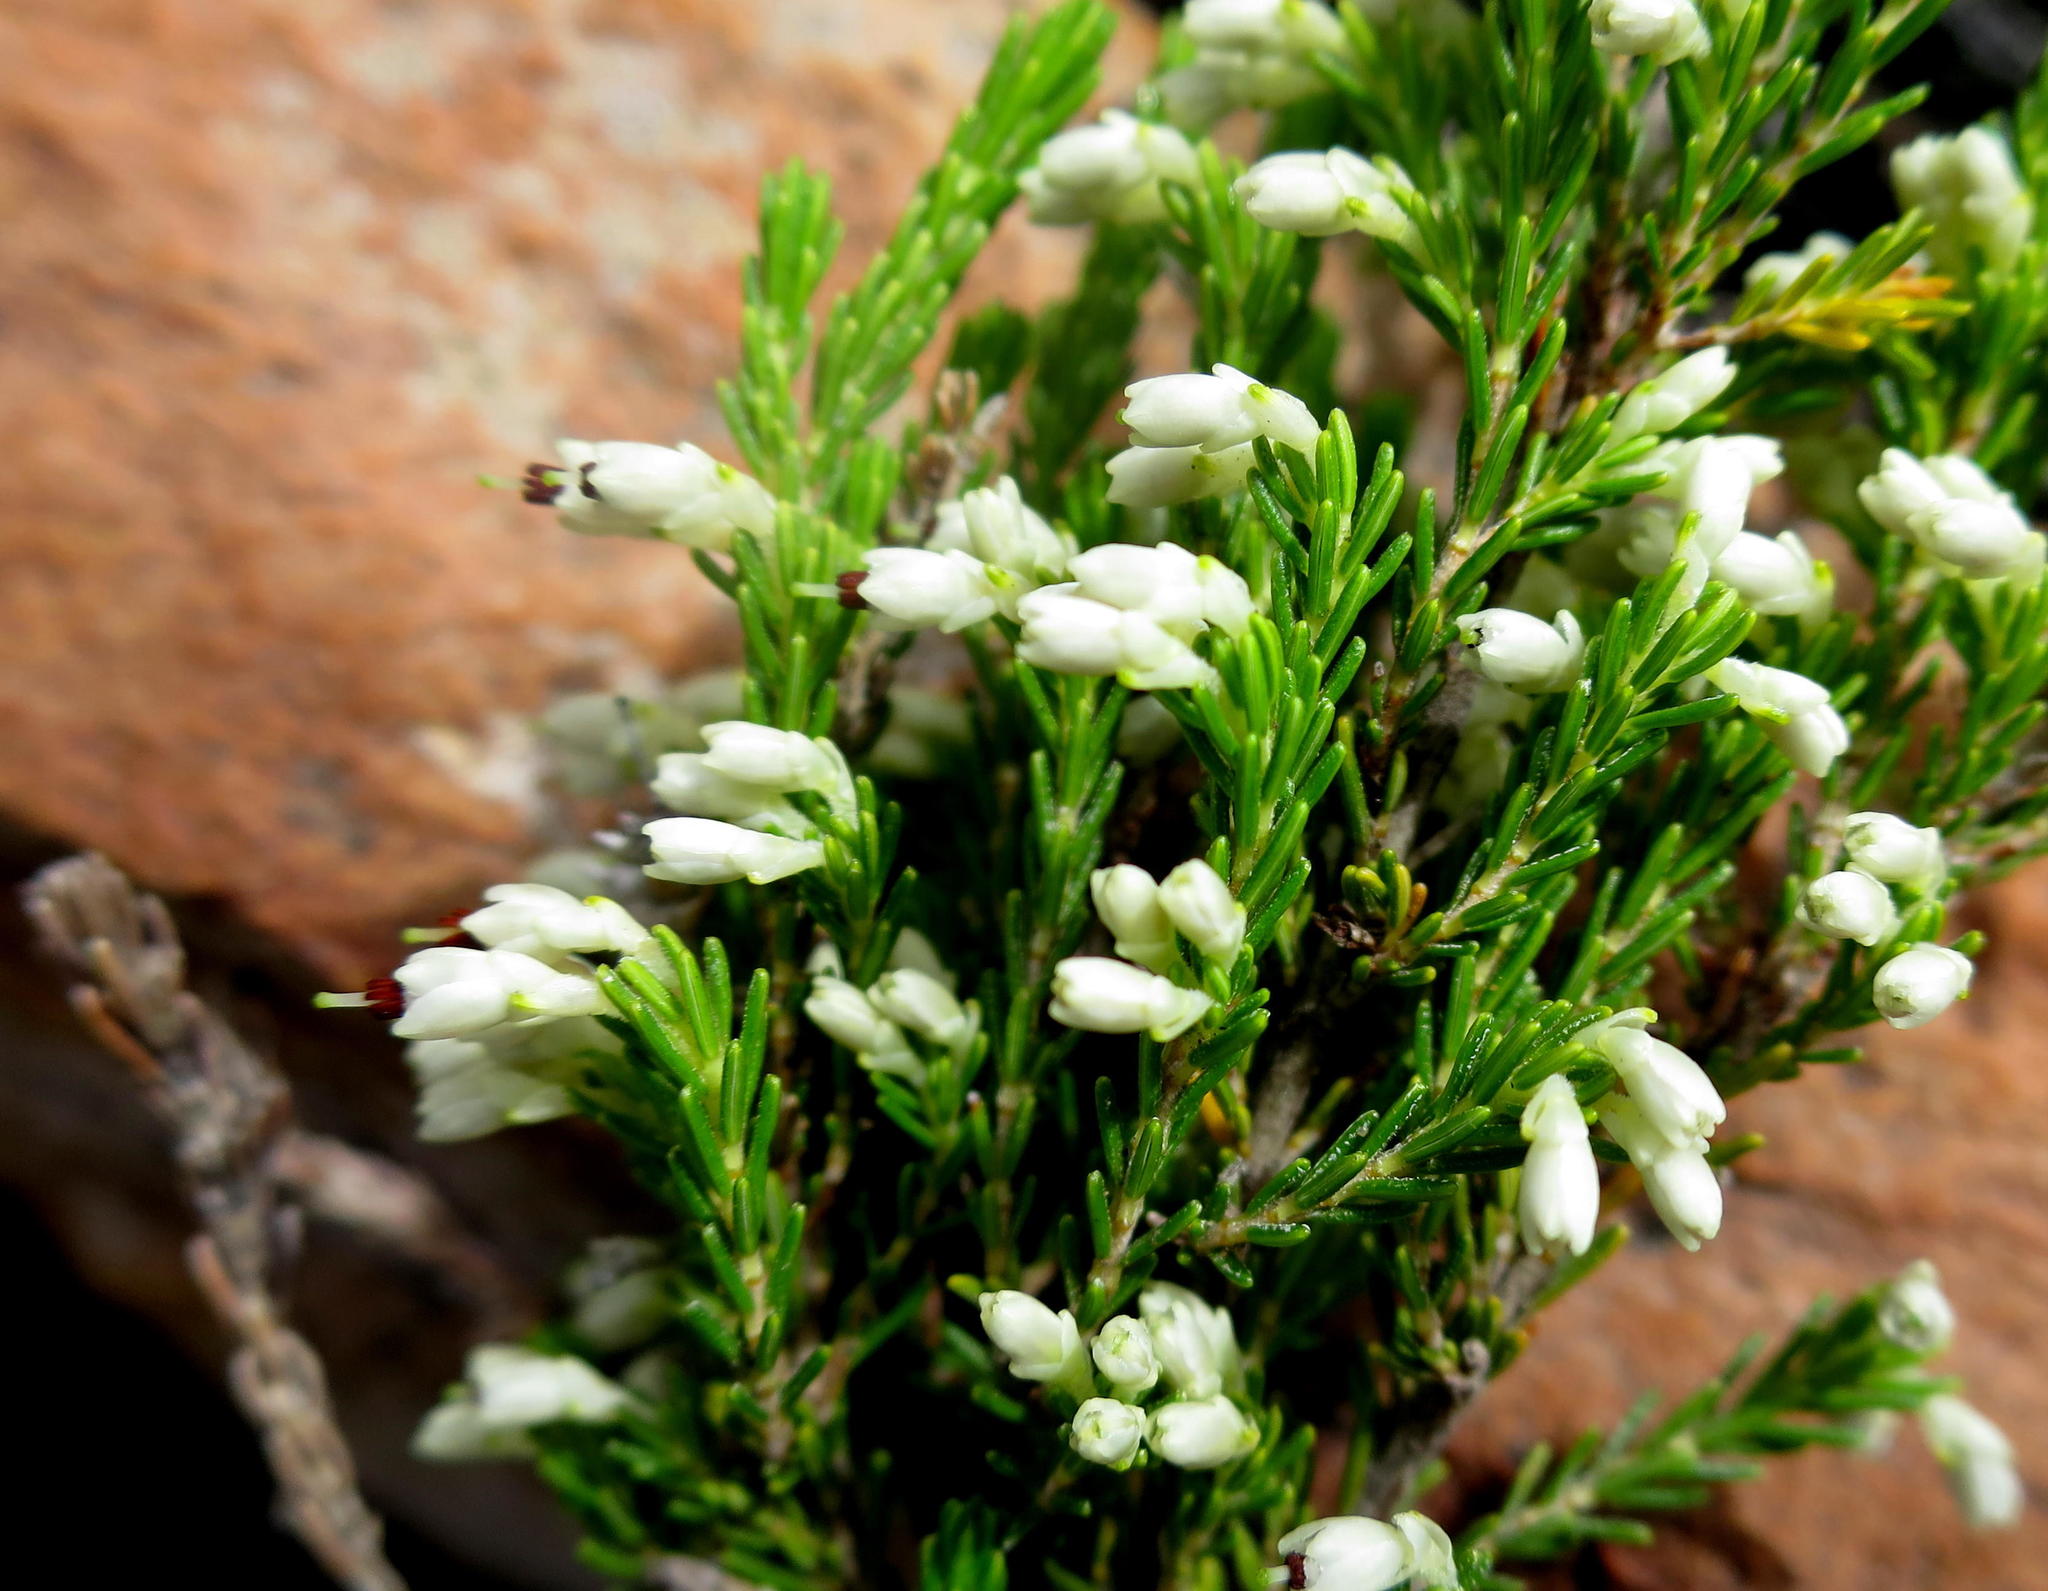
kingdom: Plantae
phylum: Tracheophyta
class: Magnoliopsida
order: Ericales
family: Ericaceae
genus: Erica
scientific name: Erica imbricata
